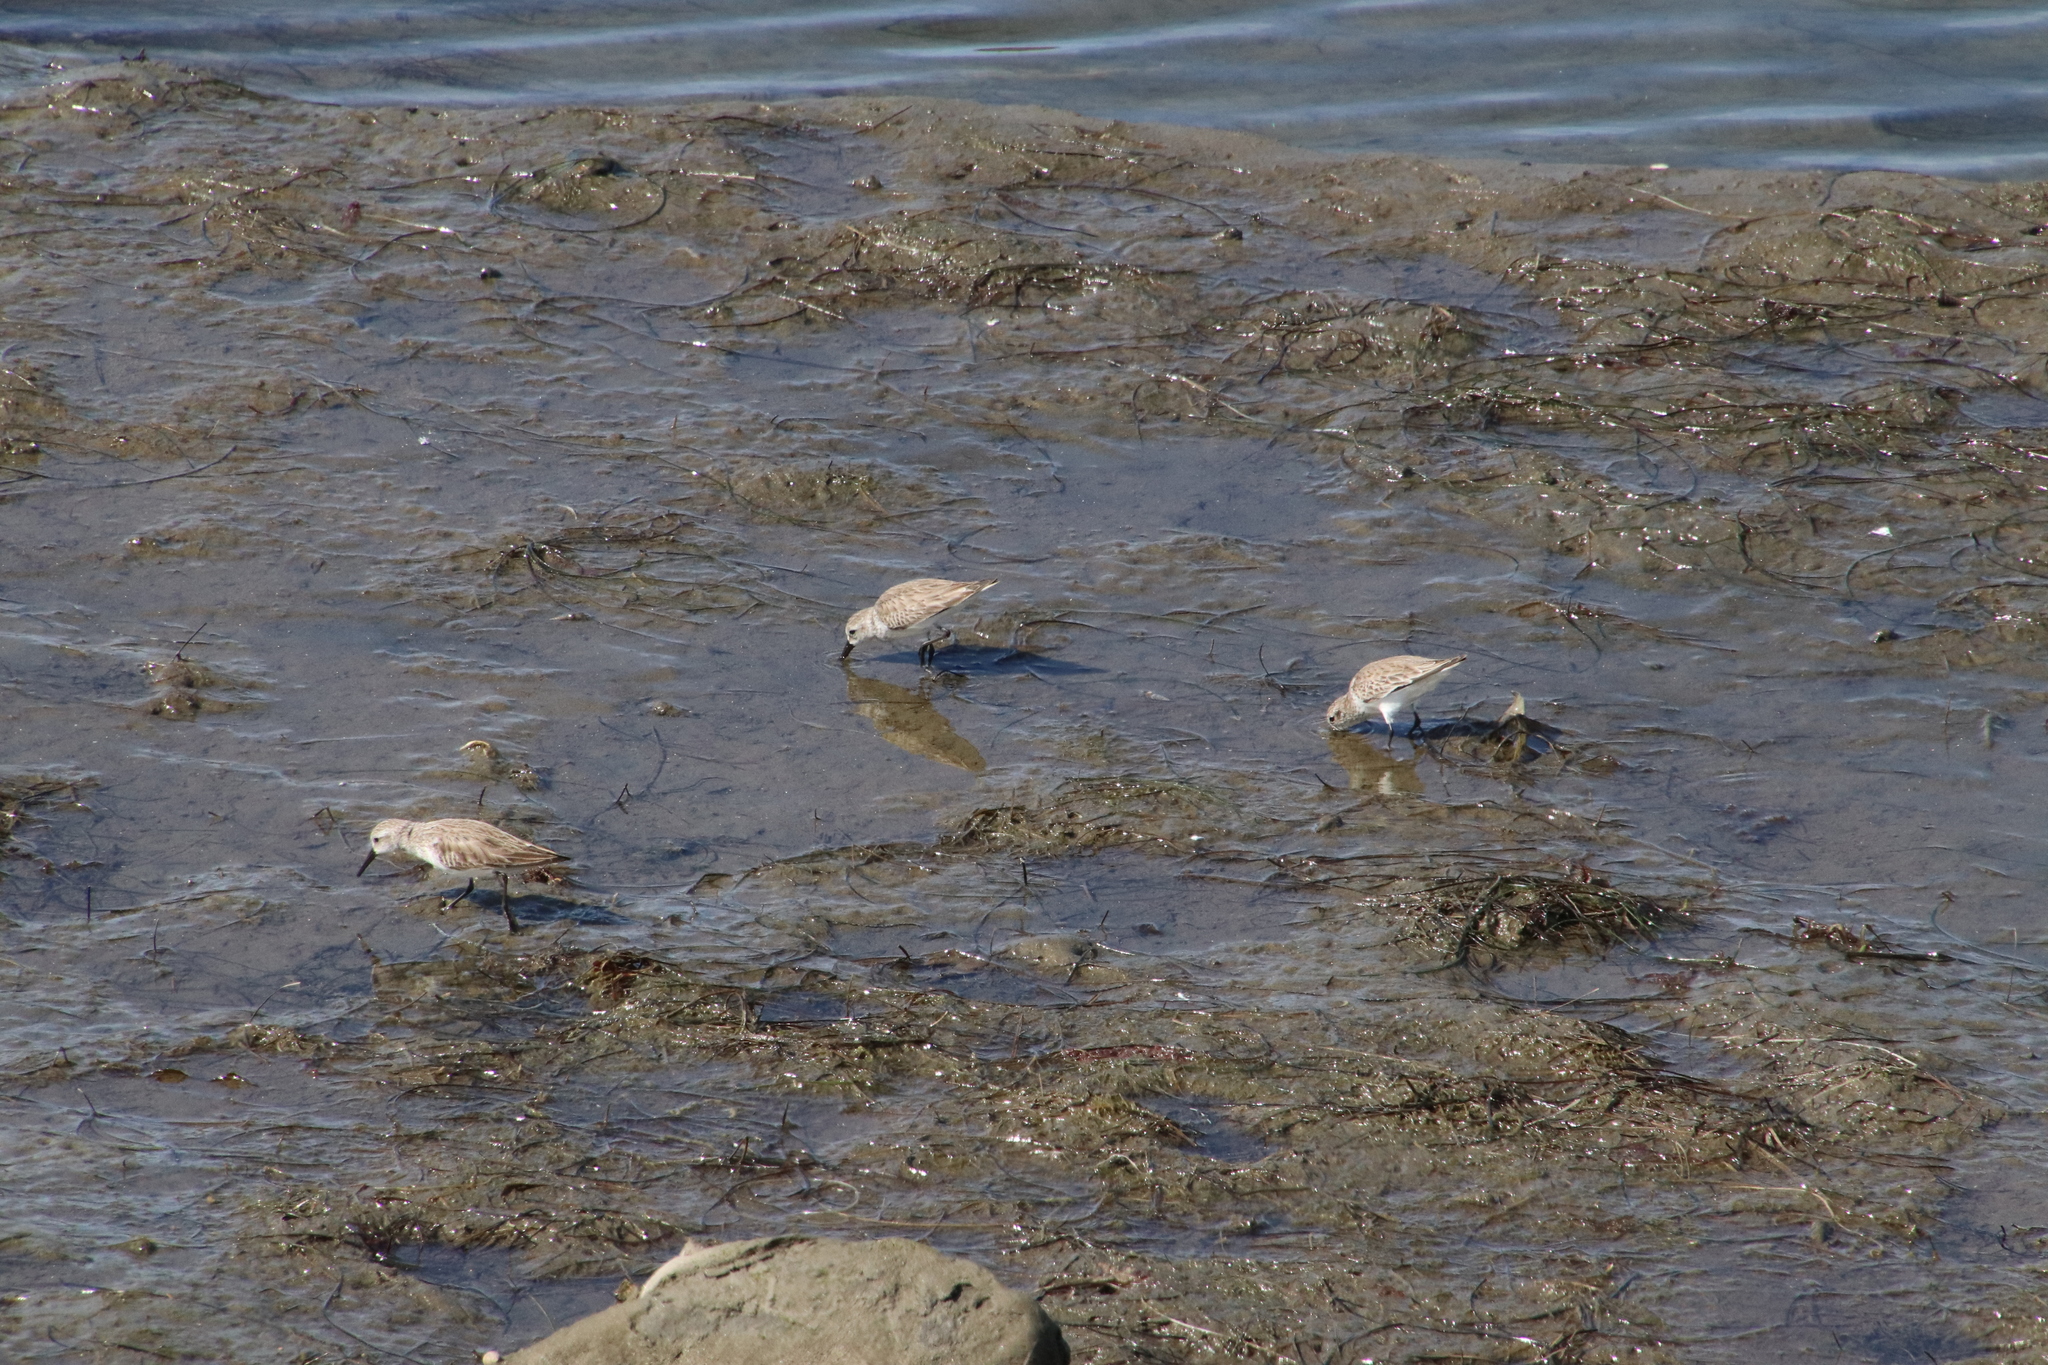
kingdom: Animalia
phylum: Chordata
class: Aves
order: Charadriiformes
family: Scolopacidae
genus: Calidris
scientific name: Calidris mauri
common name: Western sandpiper
